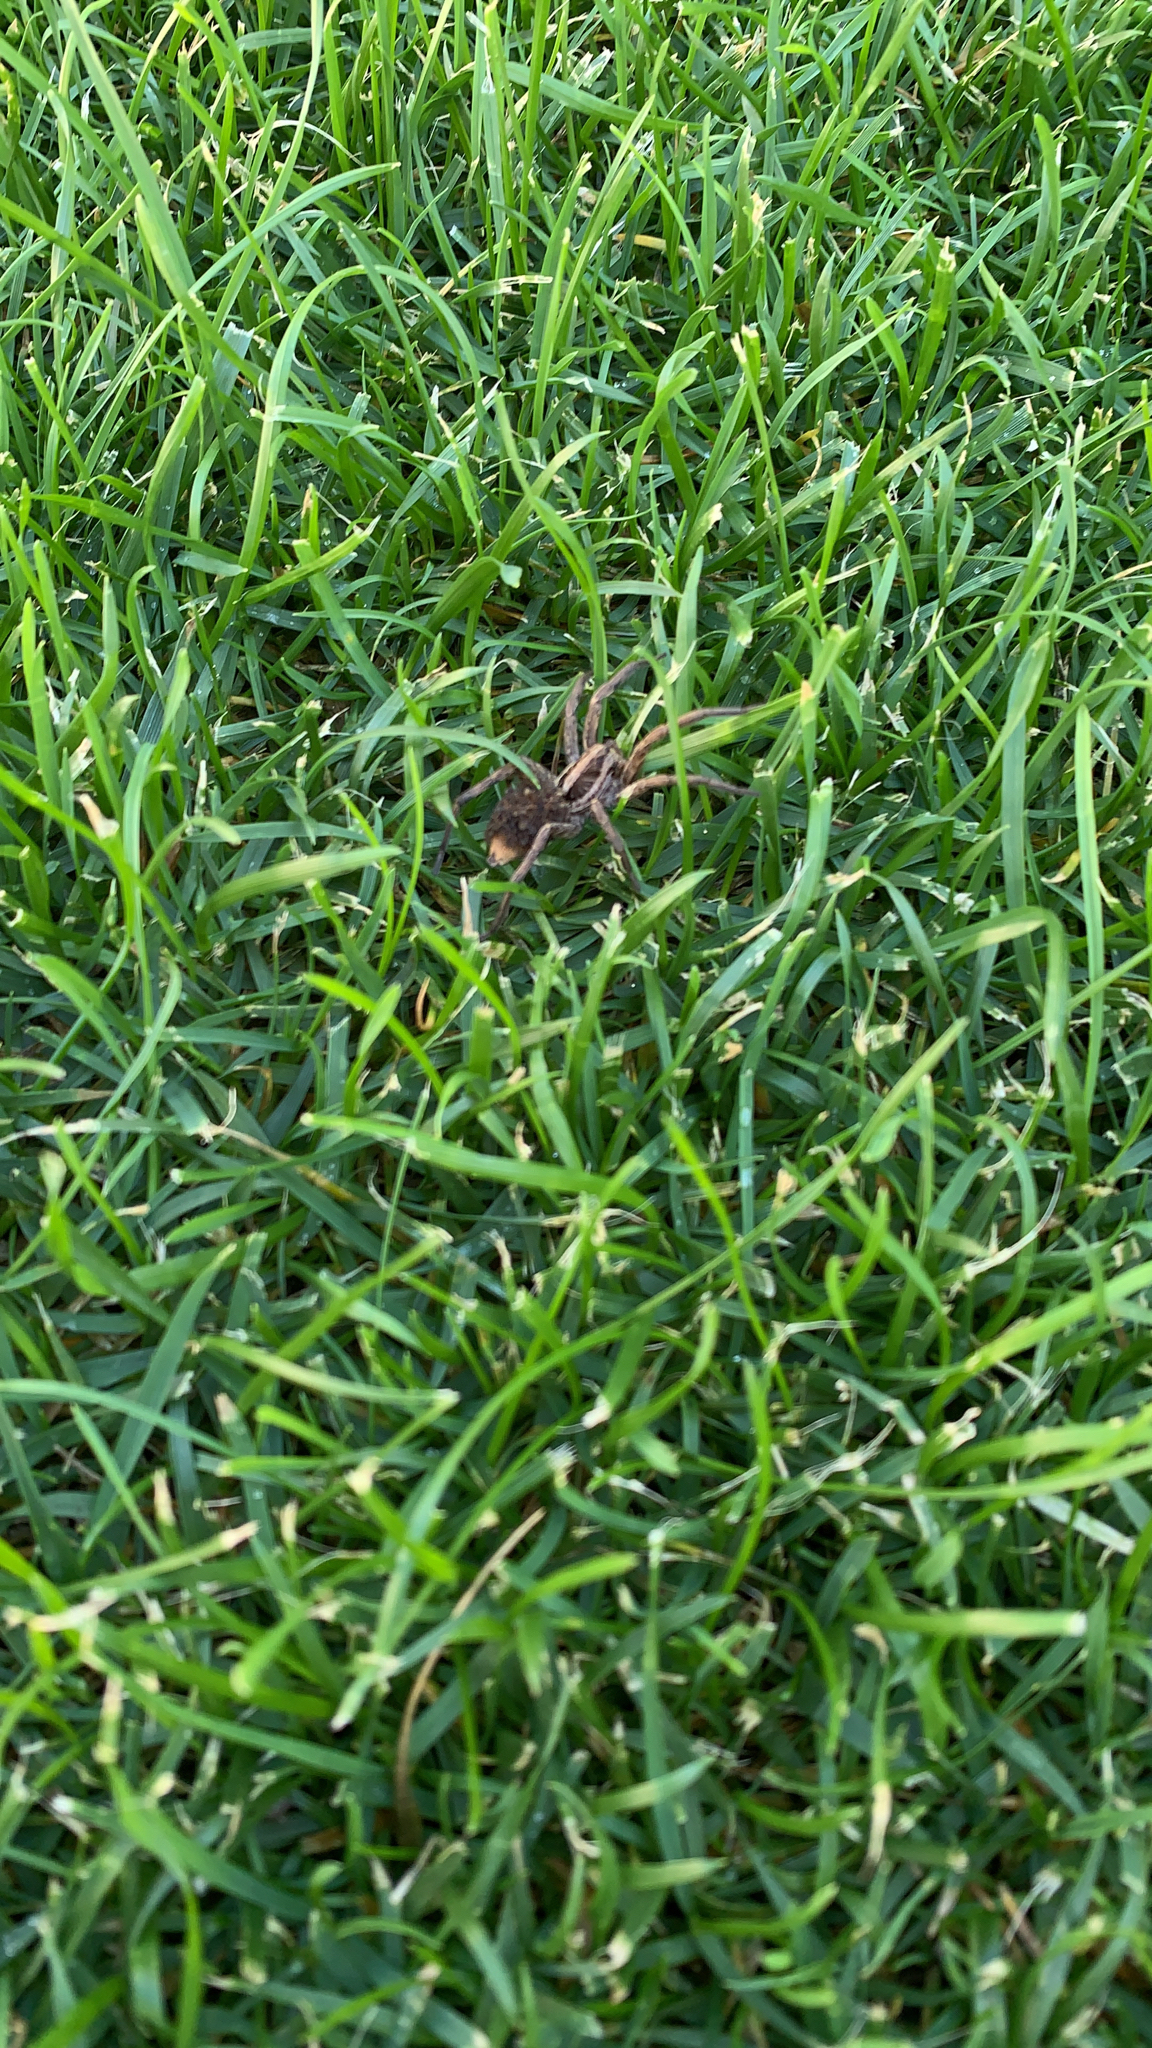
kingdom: Animalia
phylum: Arthropoda
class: Arachnida
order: Araneae
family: Lycosidae
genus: Hogna
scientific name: Hogna radiata
